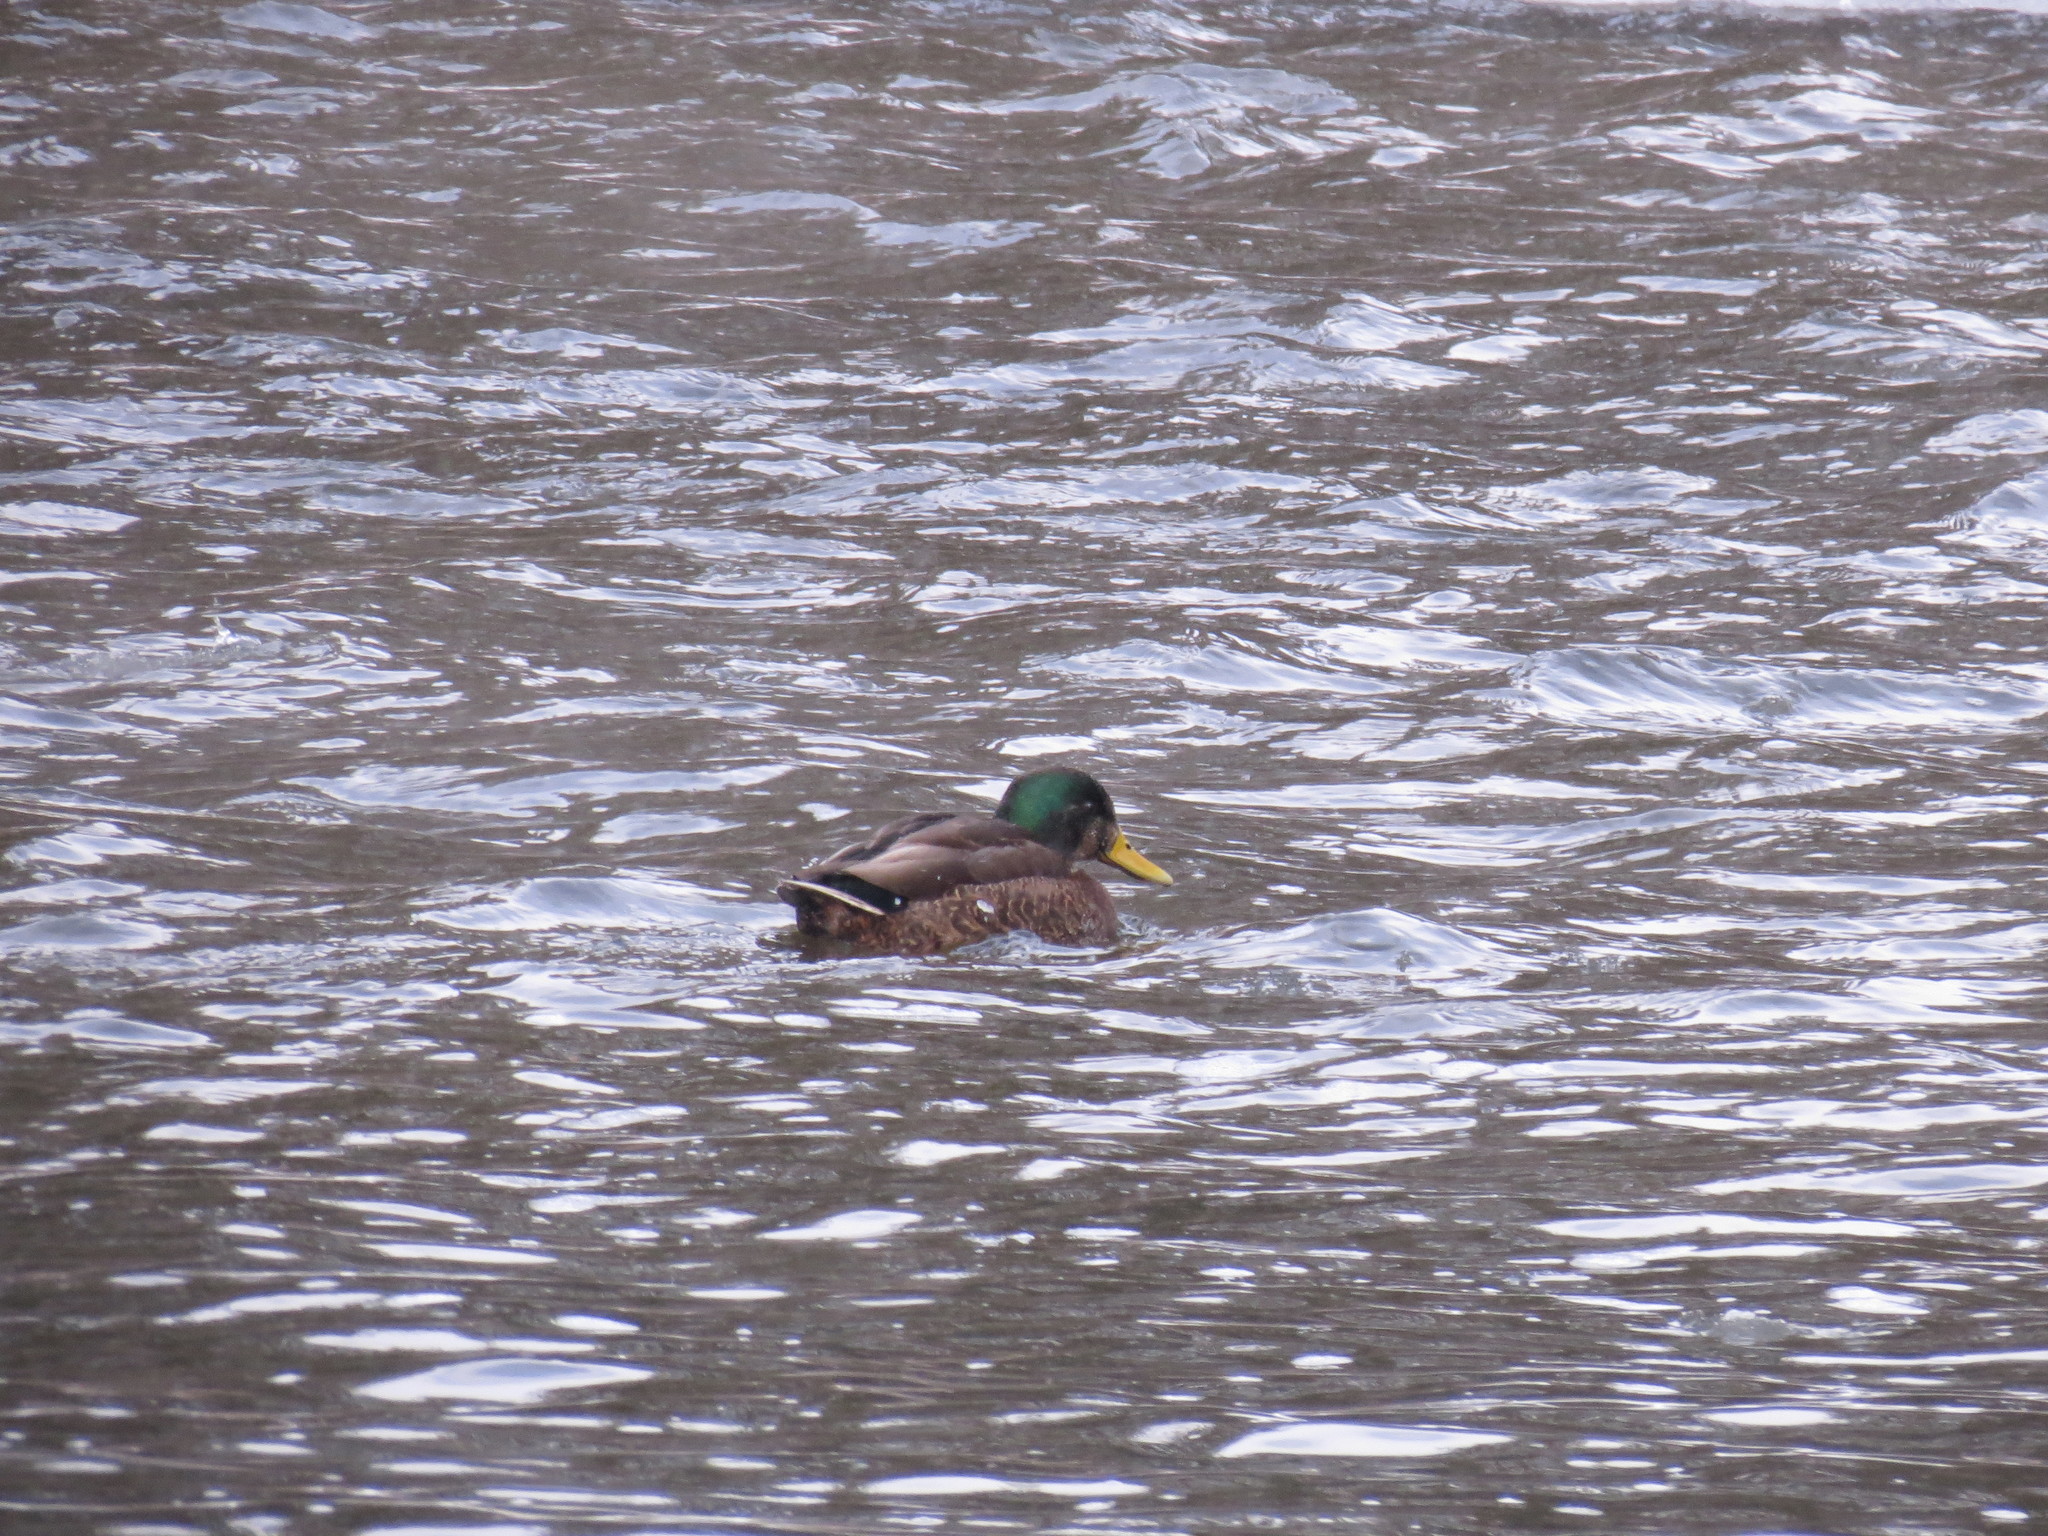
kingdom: Animalia
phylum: Chordata
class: Aves
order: Anseriformes
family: Anatidae
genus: Anas
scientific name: Anas
